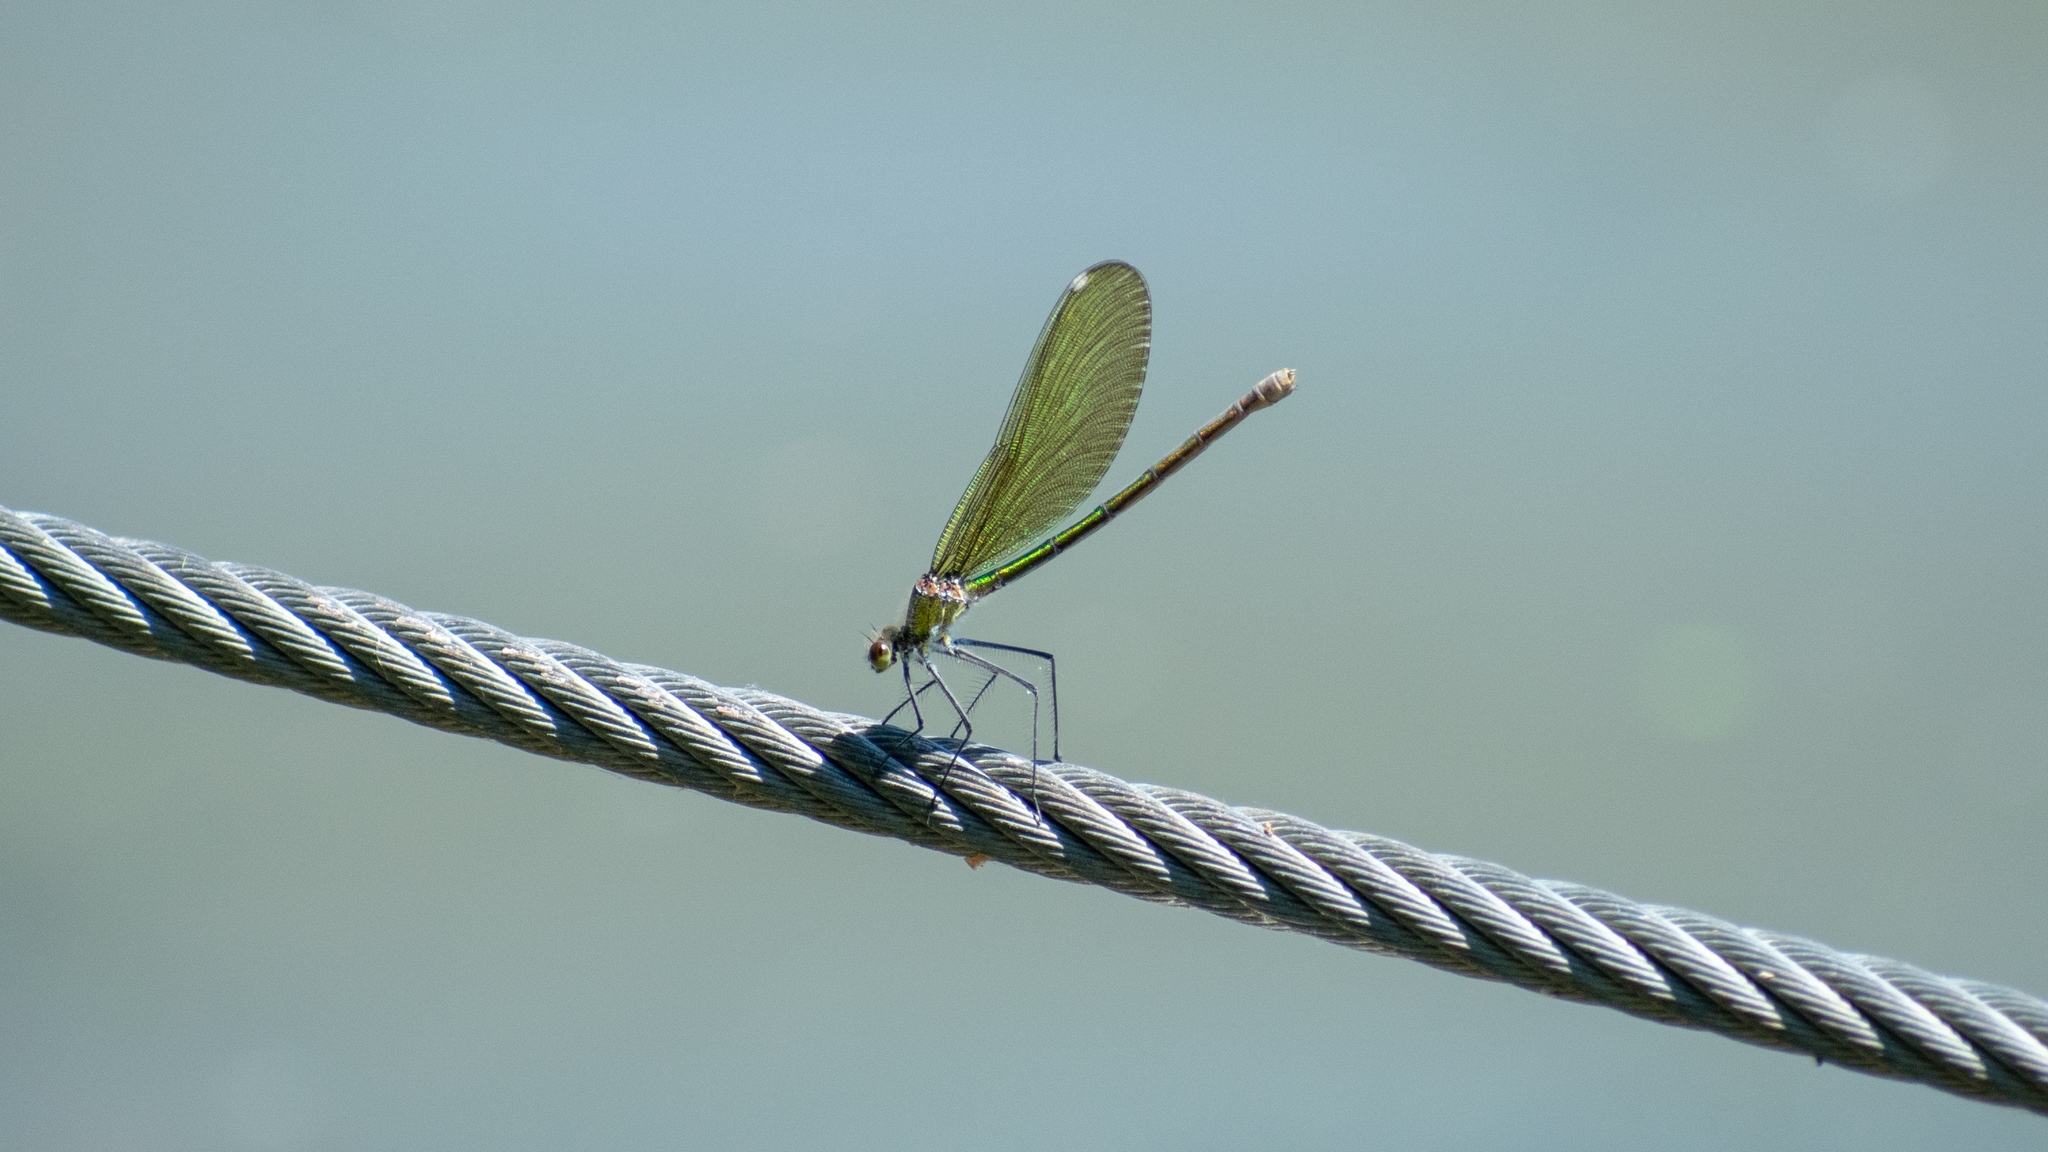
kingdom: Animalia
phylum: Arthropoda
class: Insecta
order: Odonata
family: Calopterygidae
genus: Calopteryx
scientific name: Calopteryx splendens
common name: Banded demoiselle
